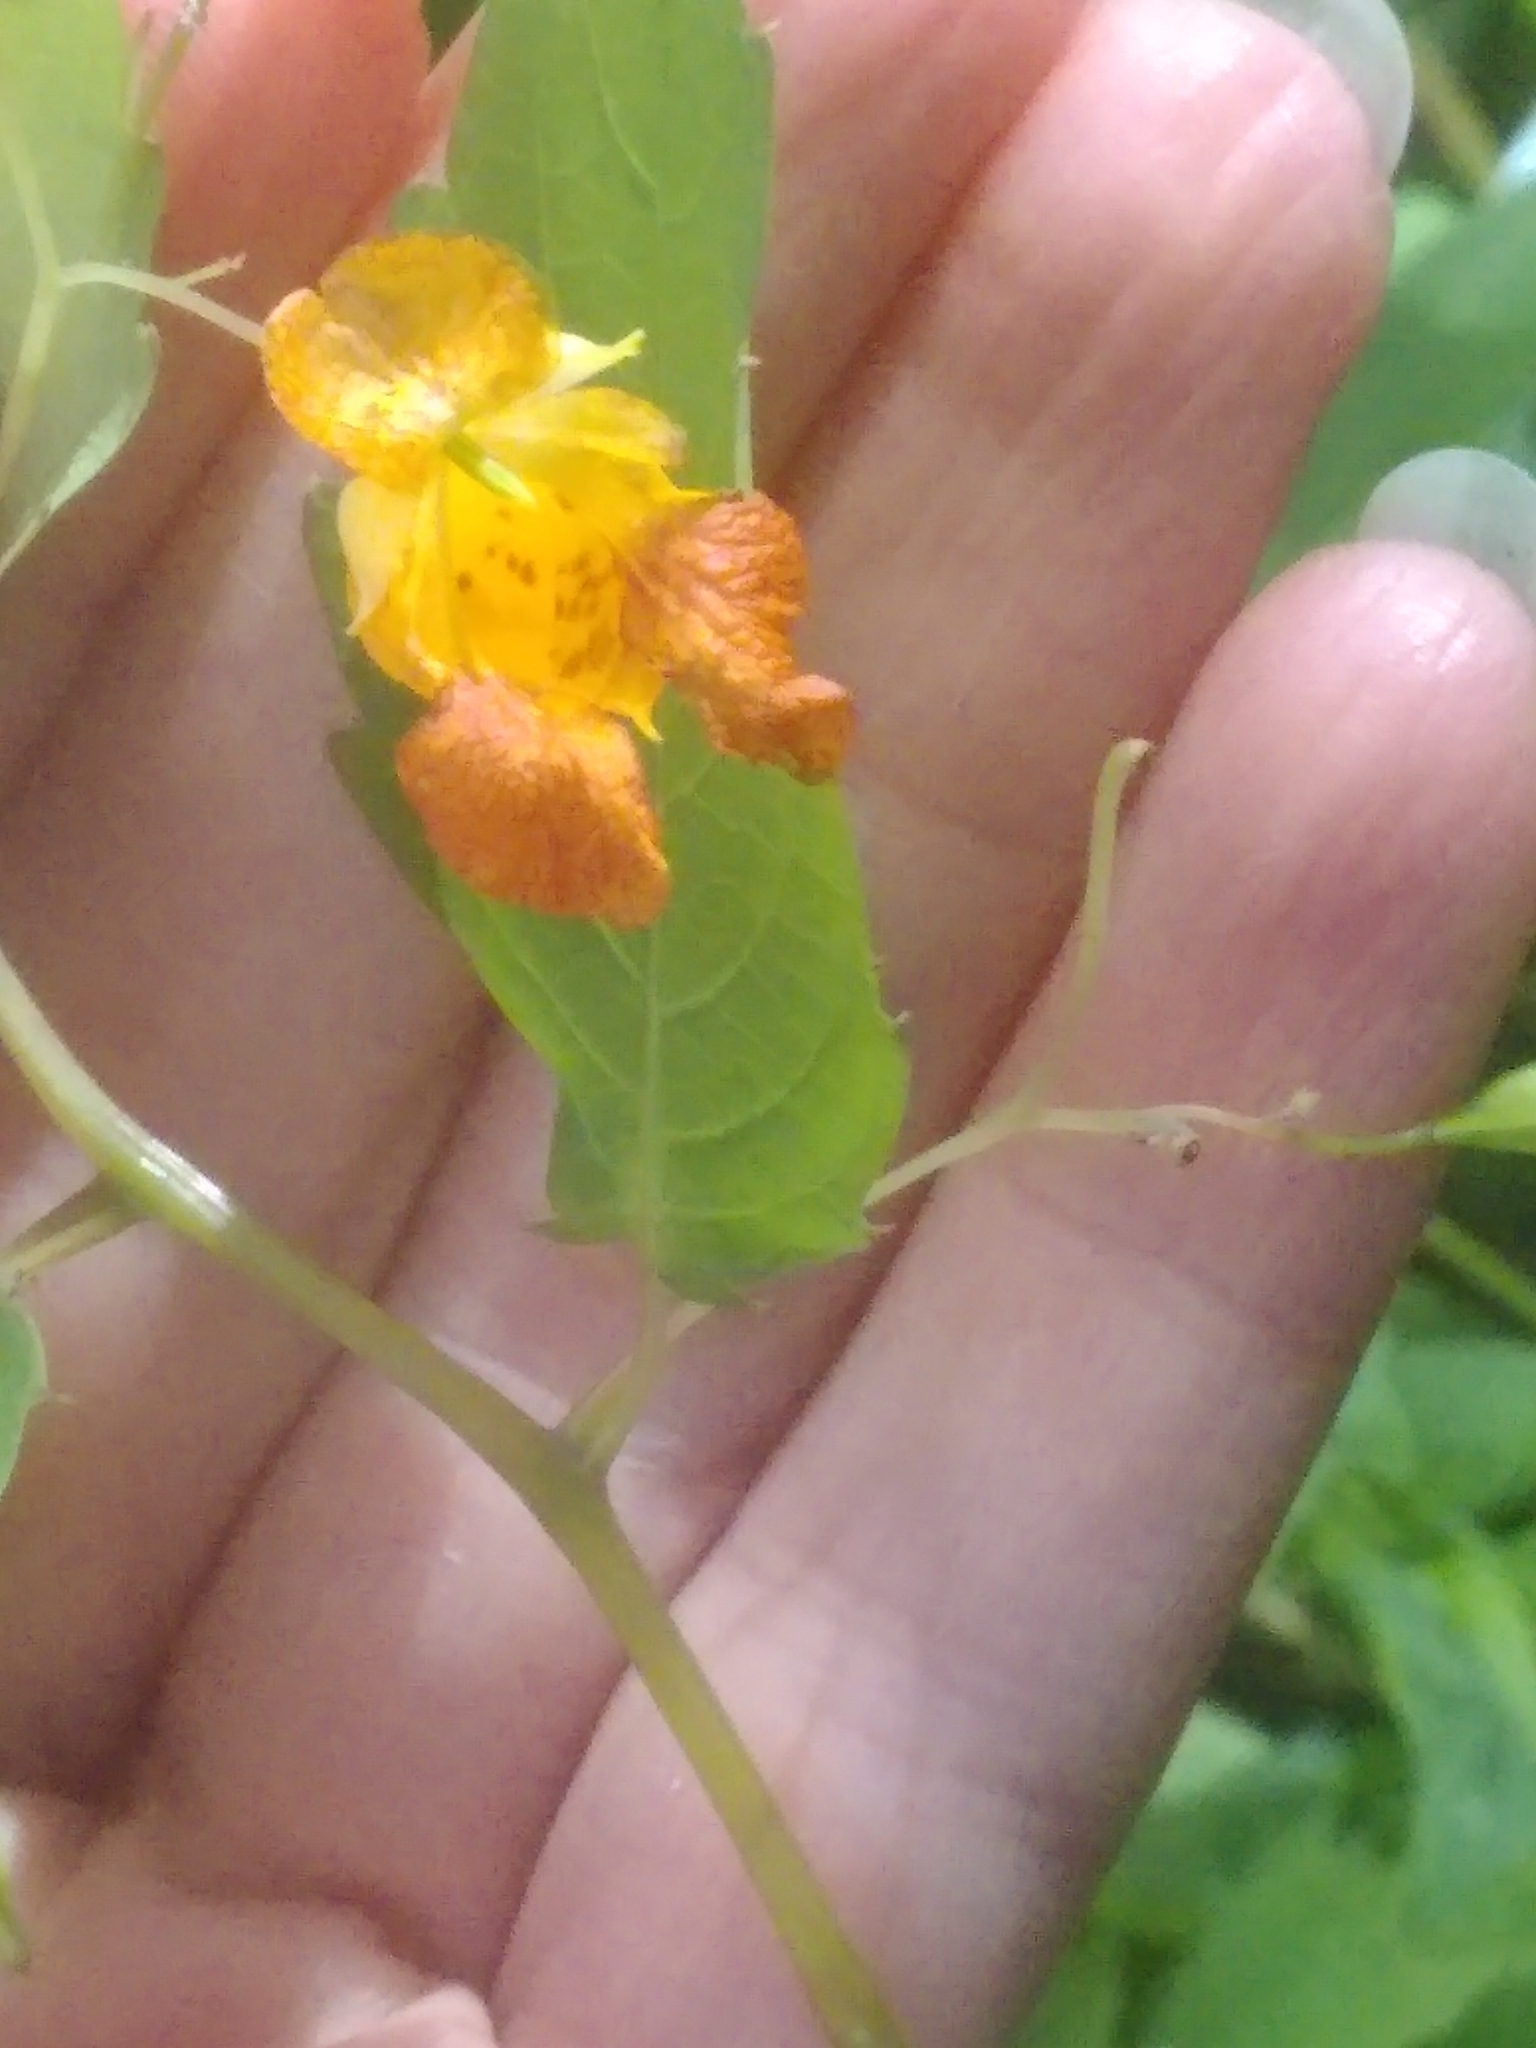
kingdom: Plantae
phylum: Tracheophyta
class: Magnoliopsida
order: Ericales
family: Balsaminaceae
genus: Impatiens
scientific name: Impatiens capensis
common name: Orange balsam
